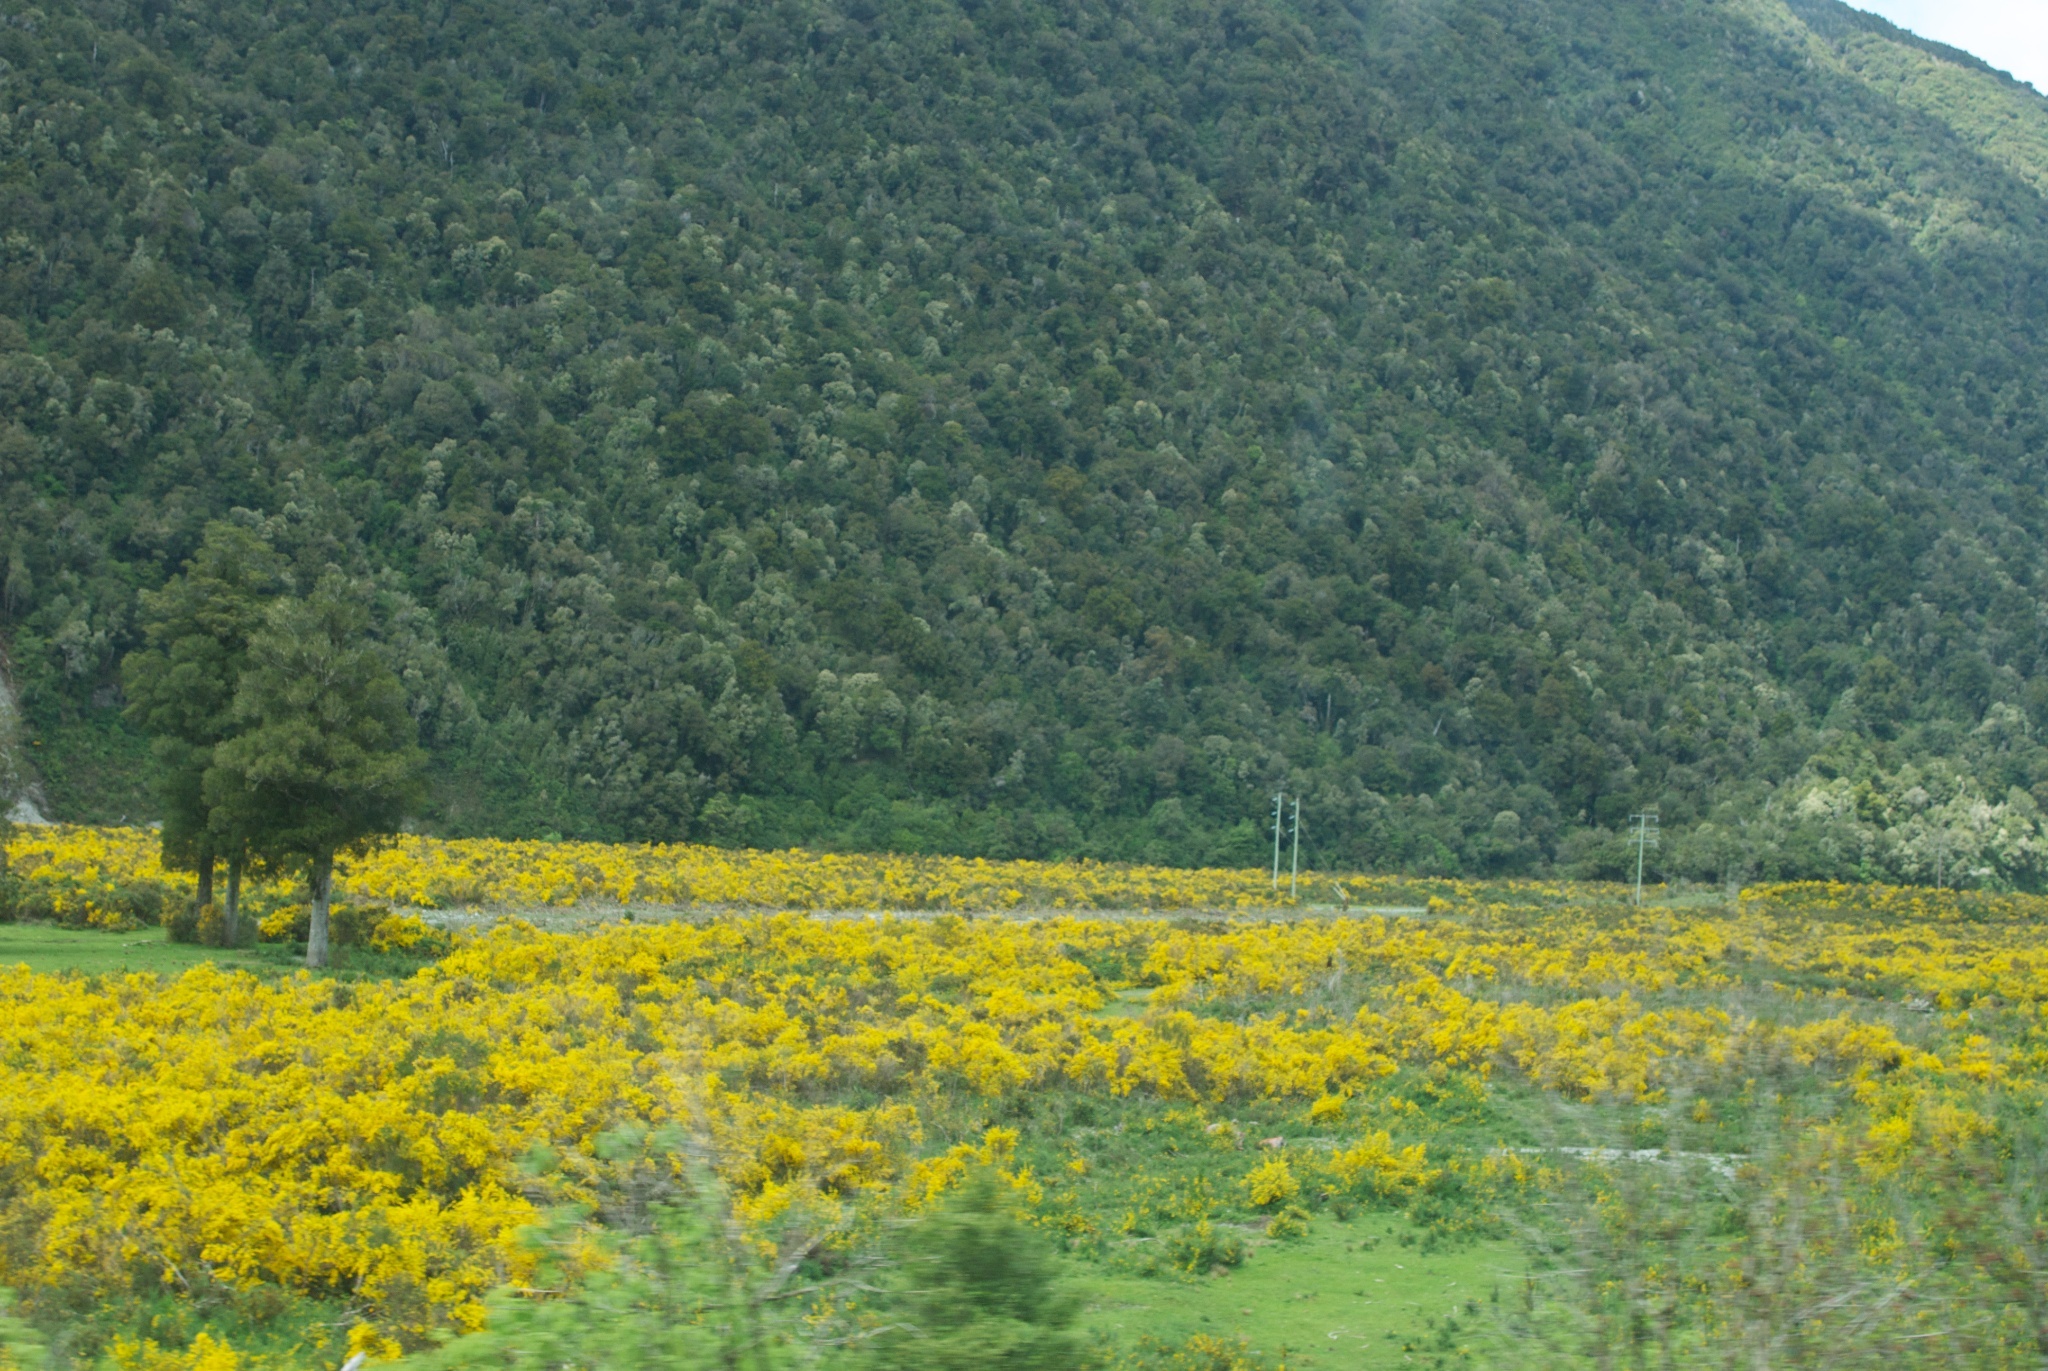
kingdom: Plantae
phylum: Tracheophyta
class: Magnoliopsida
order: Fabales
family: Fabaceae
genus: Cytisus
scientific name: Cytisus scoparius
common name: Scotch broom
